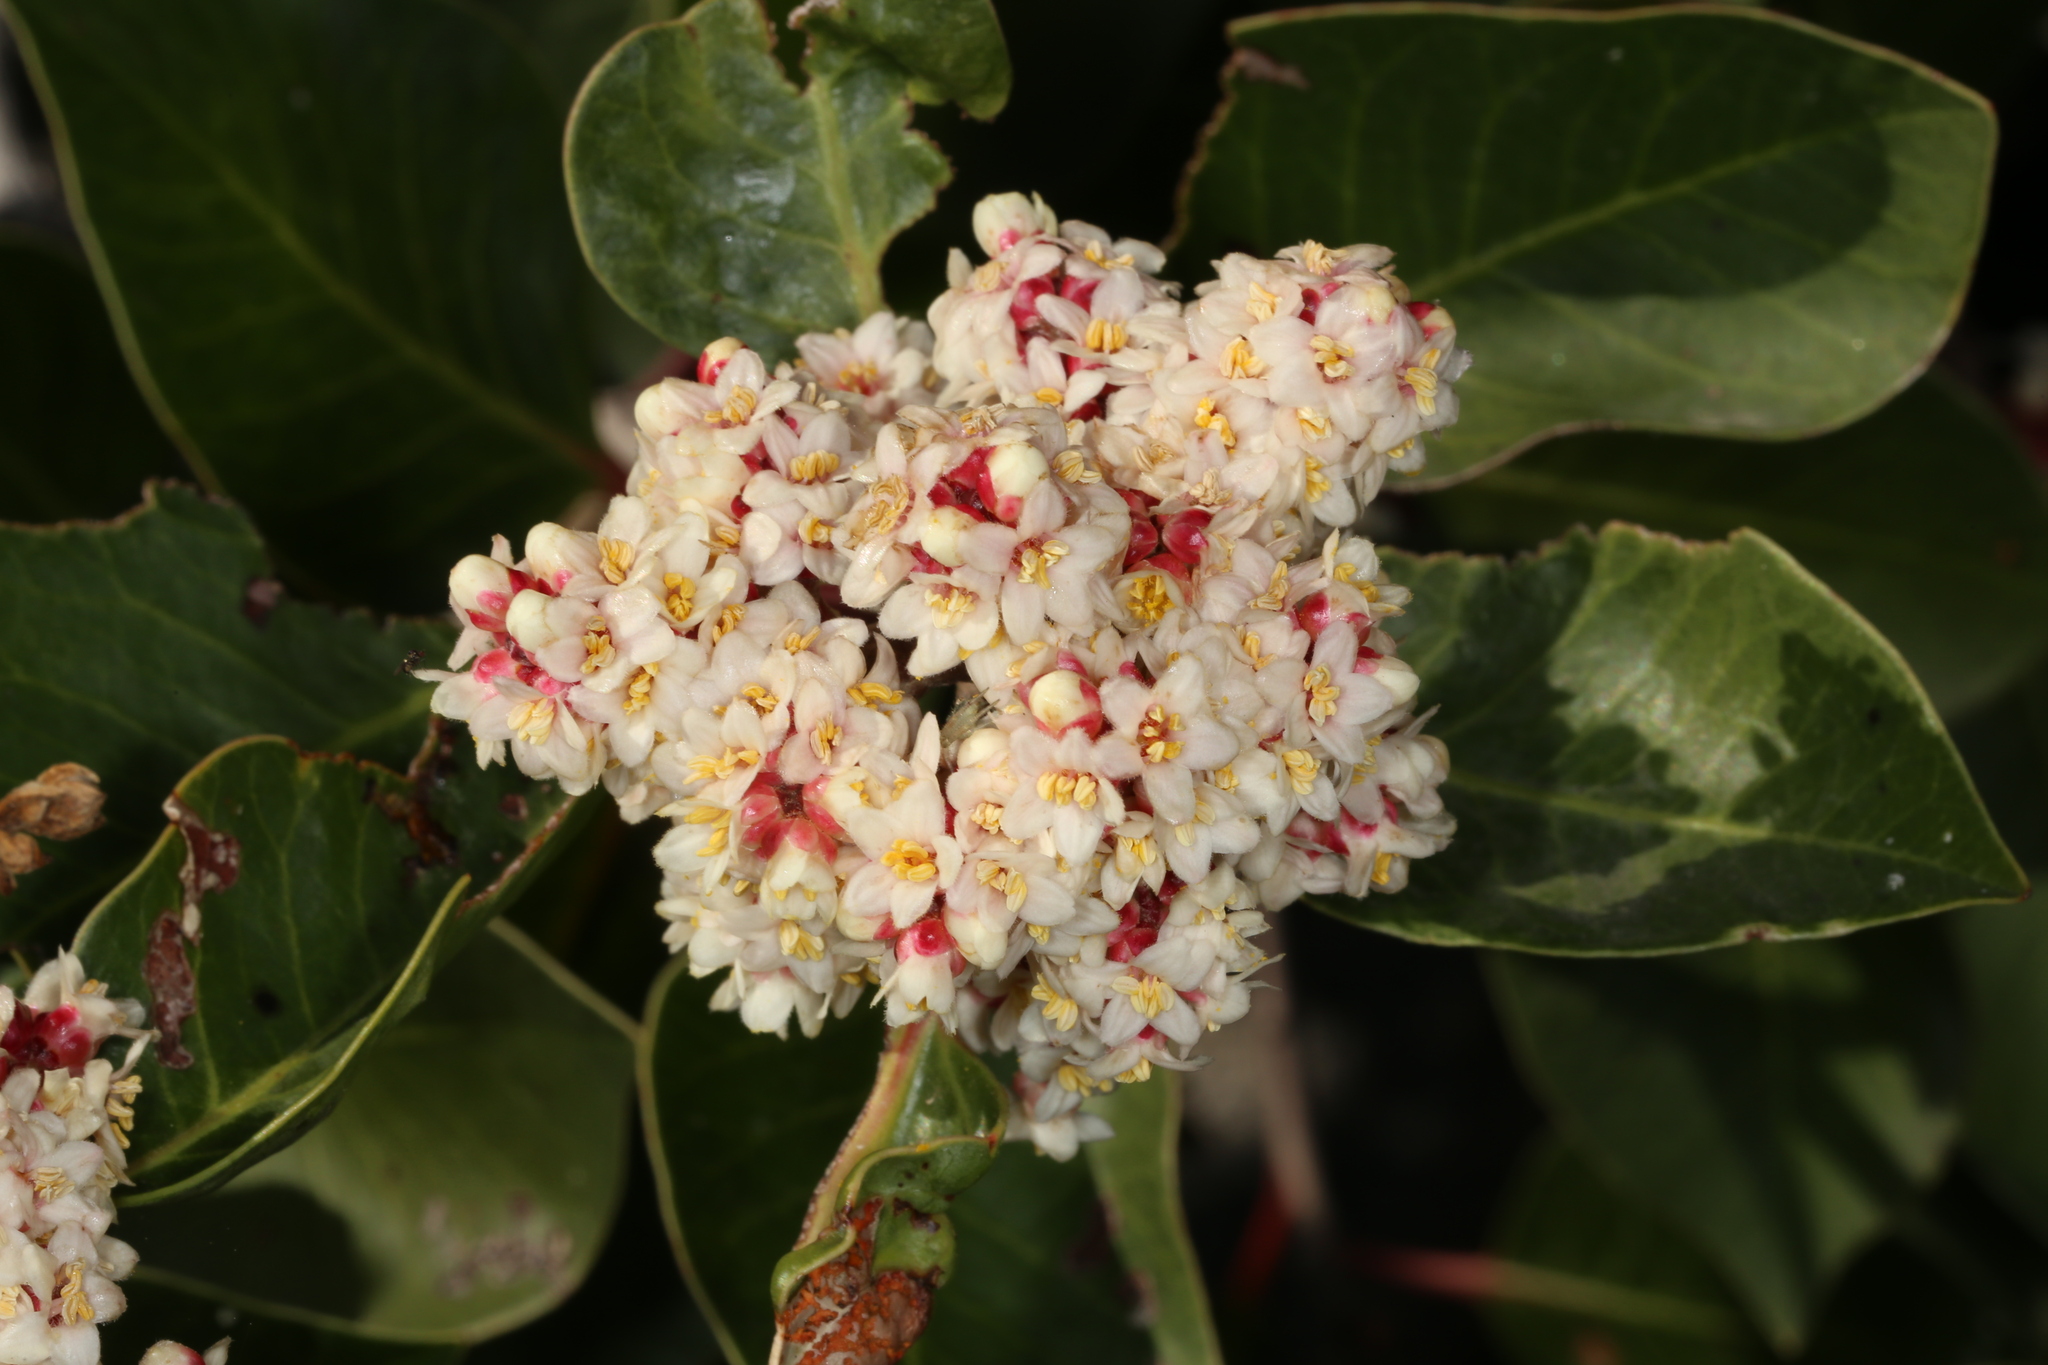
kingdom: Plantae
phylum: Tracheophyta
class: Magnoliopsida
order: Sapindales
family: Anacardiaceae
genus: Rhus
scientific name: Rhus ovata
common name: Sugar sumac
